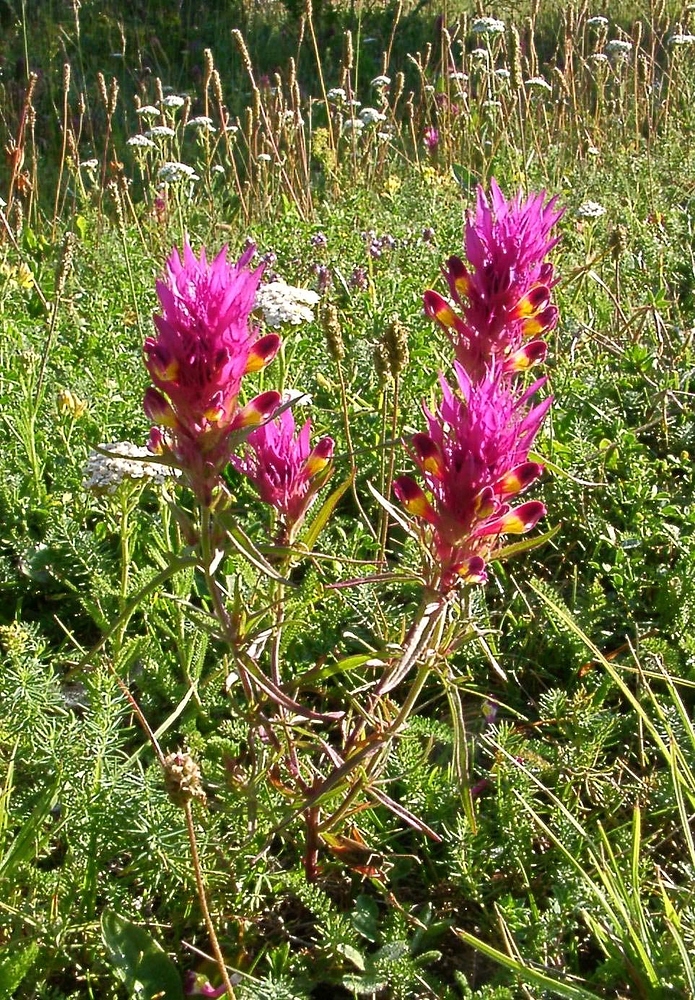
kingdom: Plantae
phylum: Tracheophyta
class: Magnoliopsida
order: Lamiales
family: Orobanchaceae
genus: Melampyrum
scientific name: Melampyrum arvense
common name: Field cow-wheat
